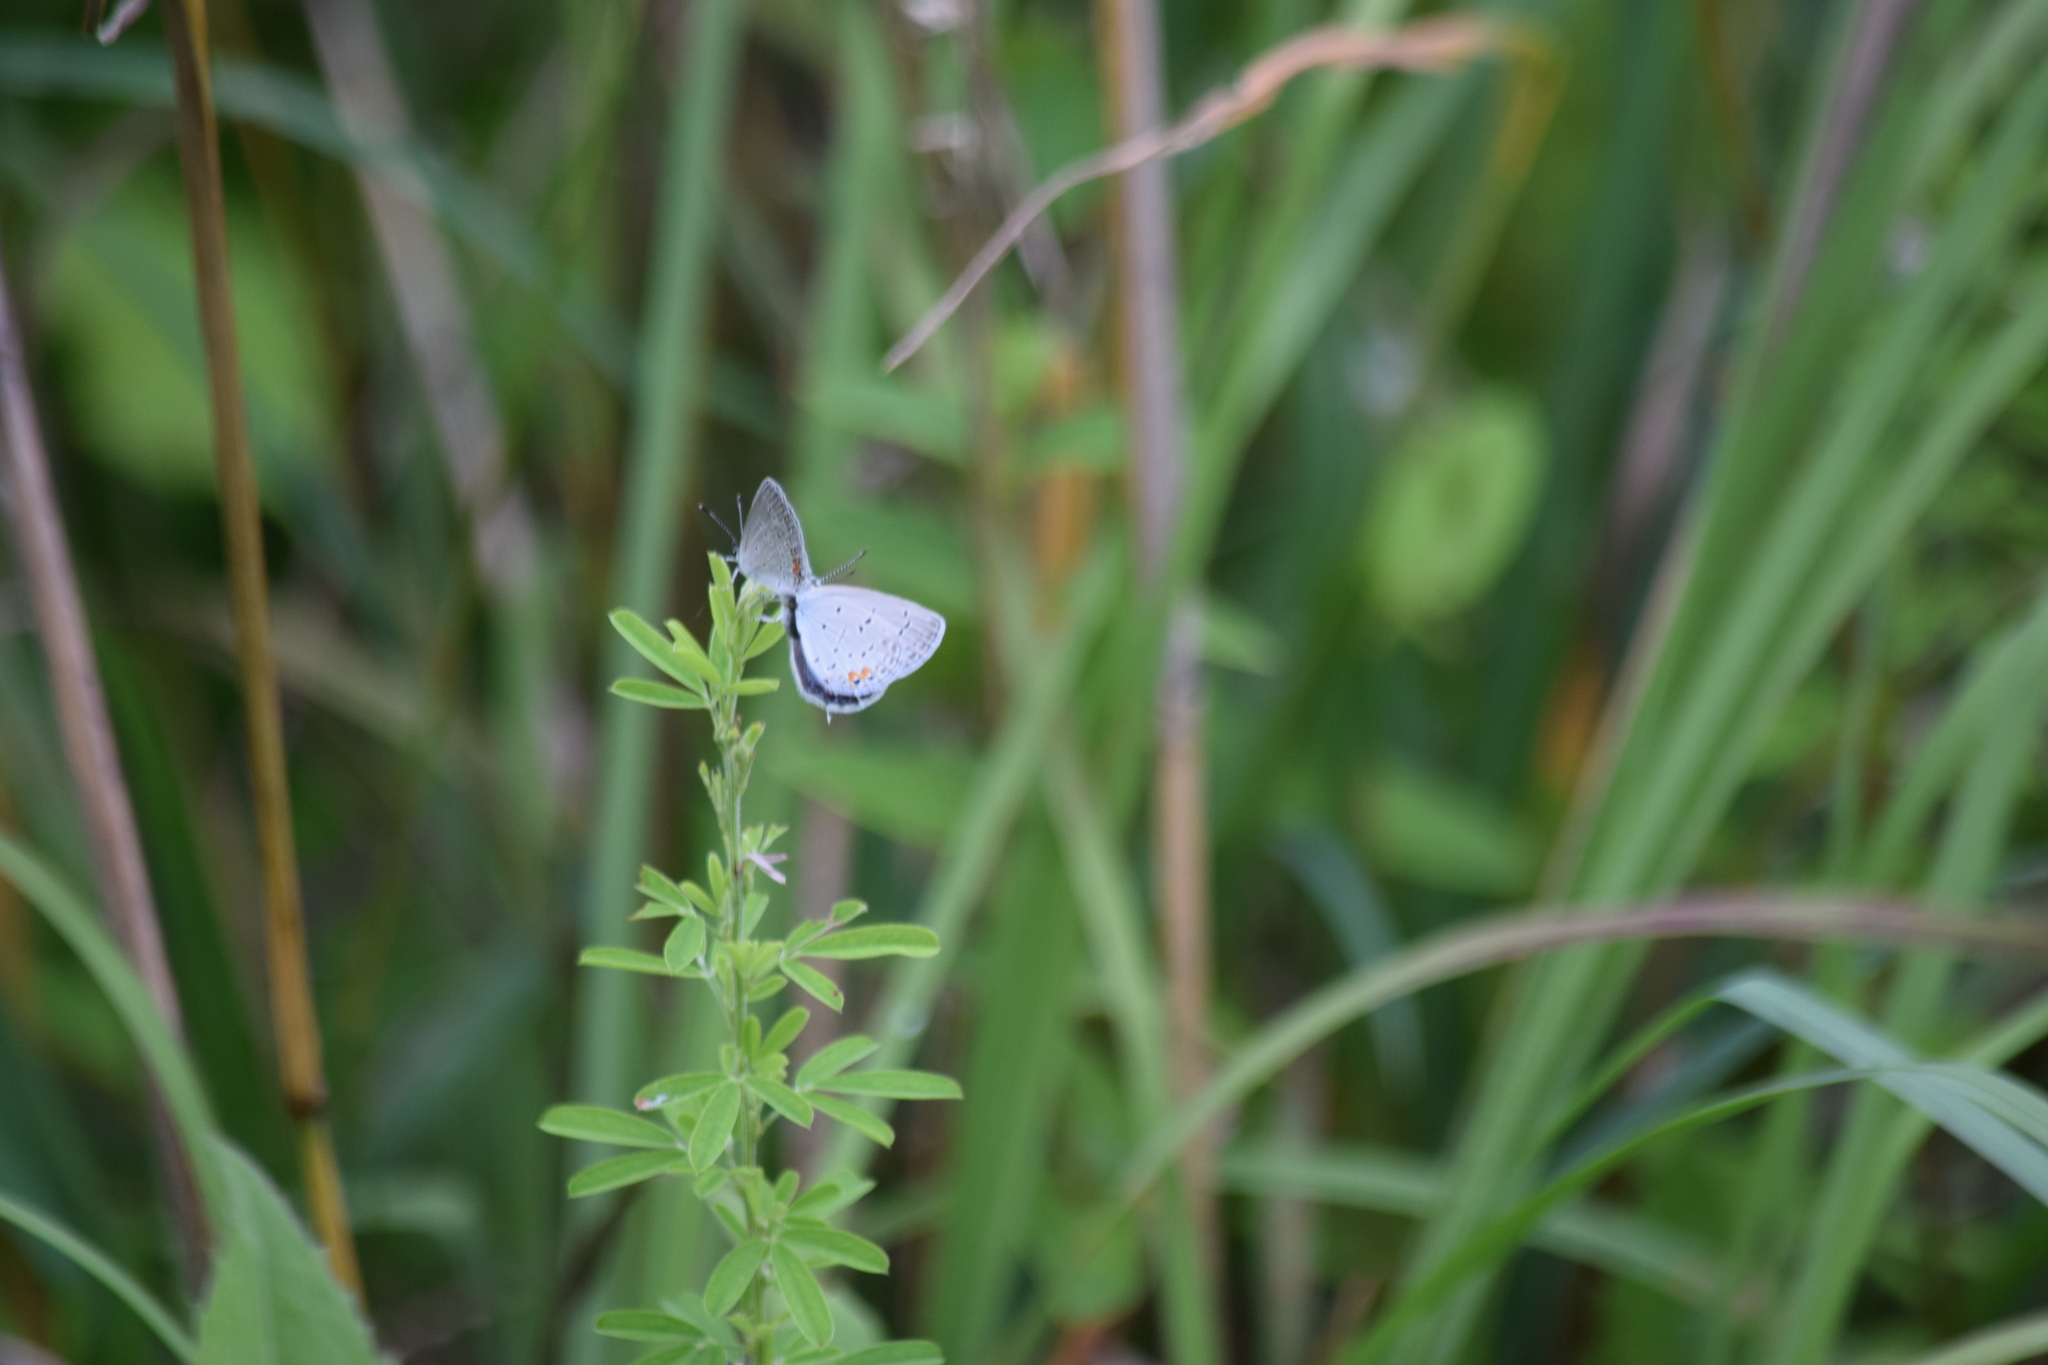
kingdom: Animalia
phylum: Arthropoda
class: Insecta
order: Lepidoptera
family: Lycaenidae
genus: Elkalyce
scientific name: Elkalyce comyntas
